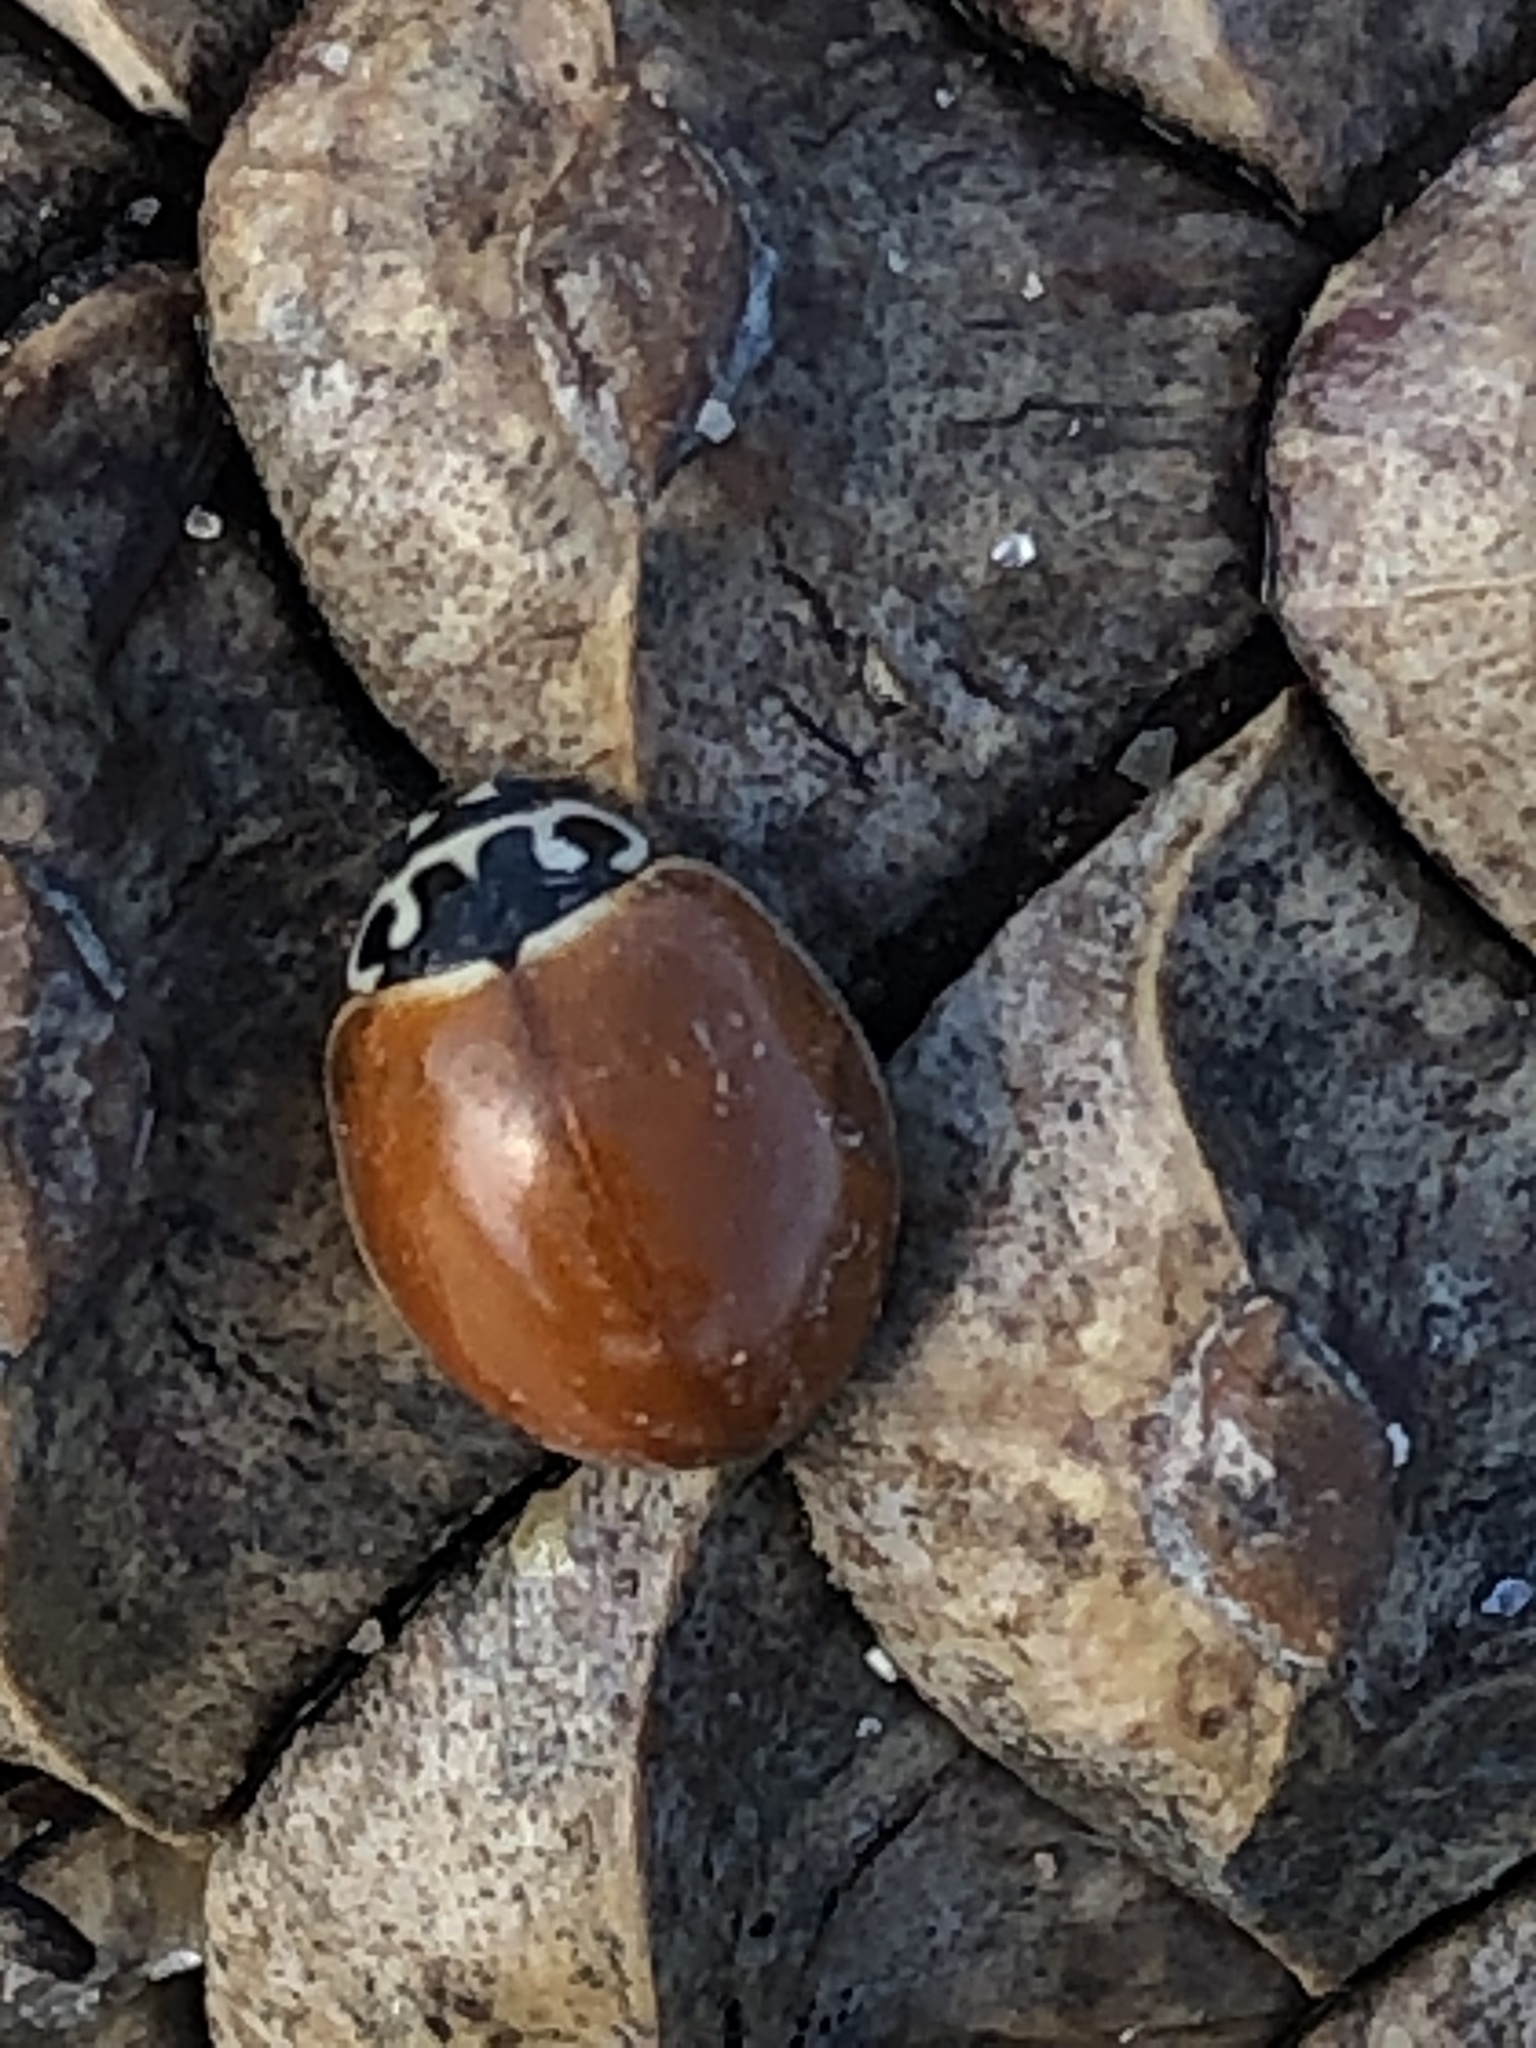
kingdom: Animalia
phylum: Arthropoda
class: Insecta
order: Coleoptera
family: Coccinellidae
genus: Cycloneda
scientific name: Cycloneda munda
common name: Polished lady beetle
